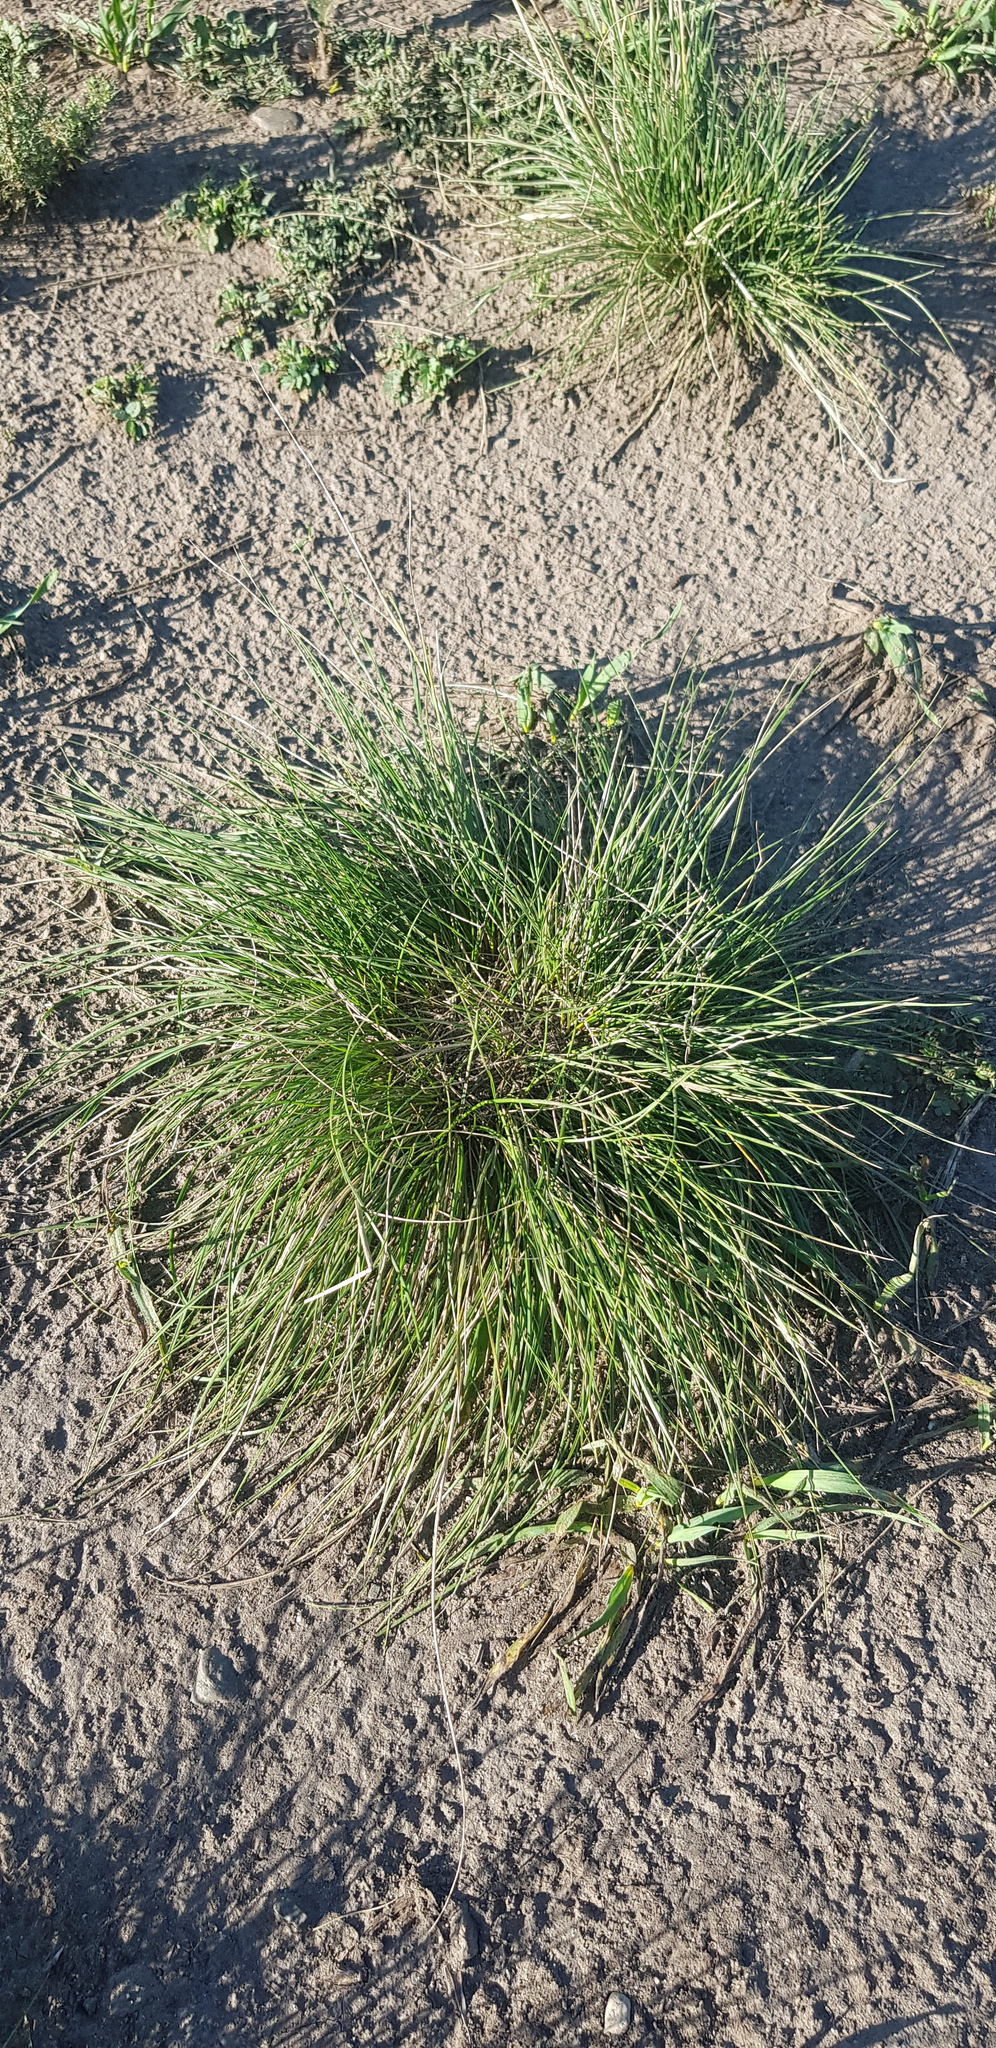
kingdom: Plantae
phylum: Tracheophyta
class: Liliopsida
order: Poales
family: Poaceae
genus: Stipa
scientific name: Stipa krylovii
